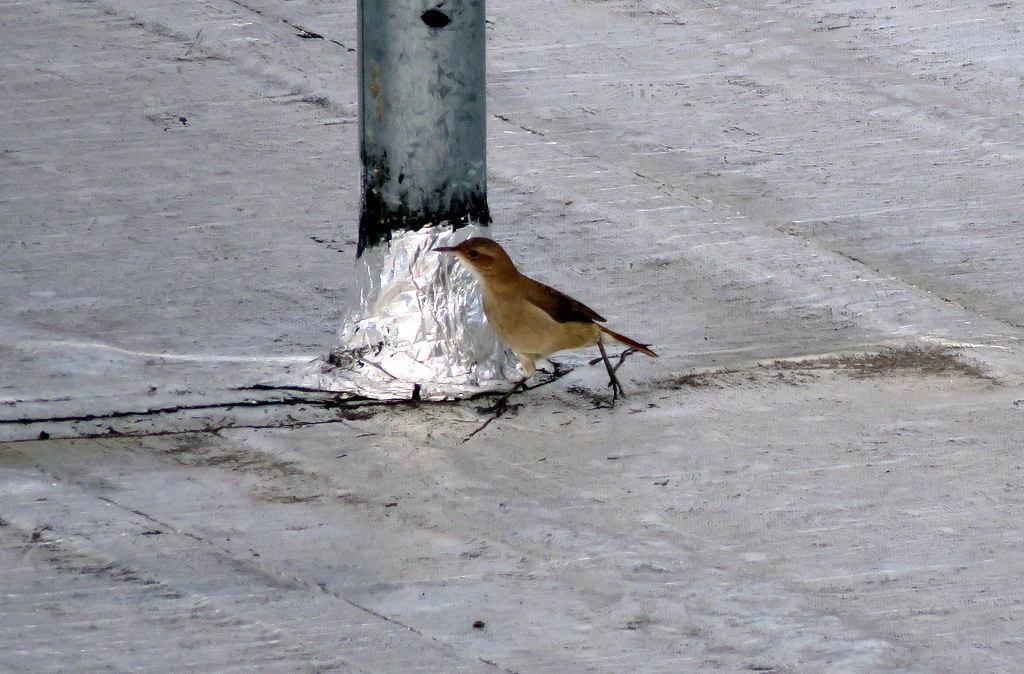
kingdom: Animalia
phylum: Chordata
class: Aves
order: Passeriformes
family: Furnariidae
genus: Furnarius
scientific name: Furnarius rufus
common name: Rufous hornero
